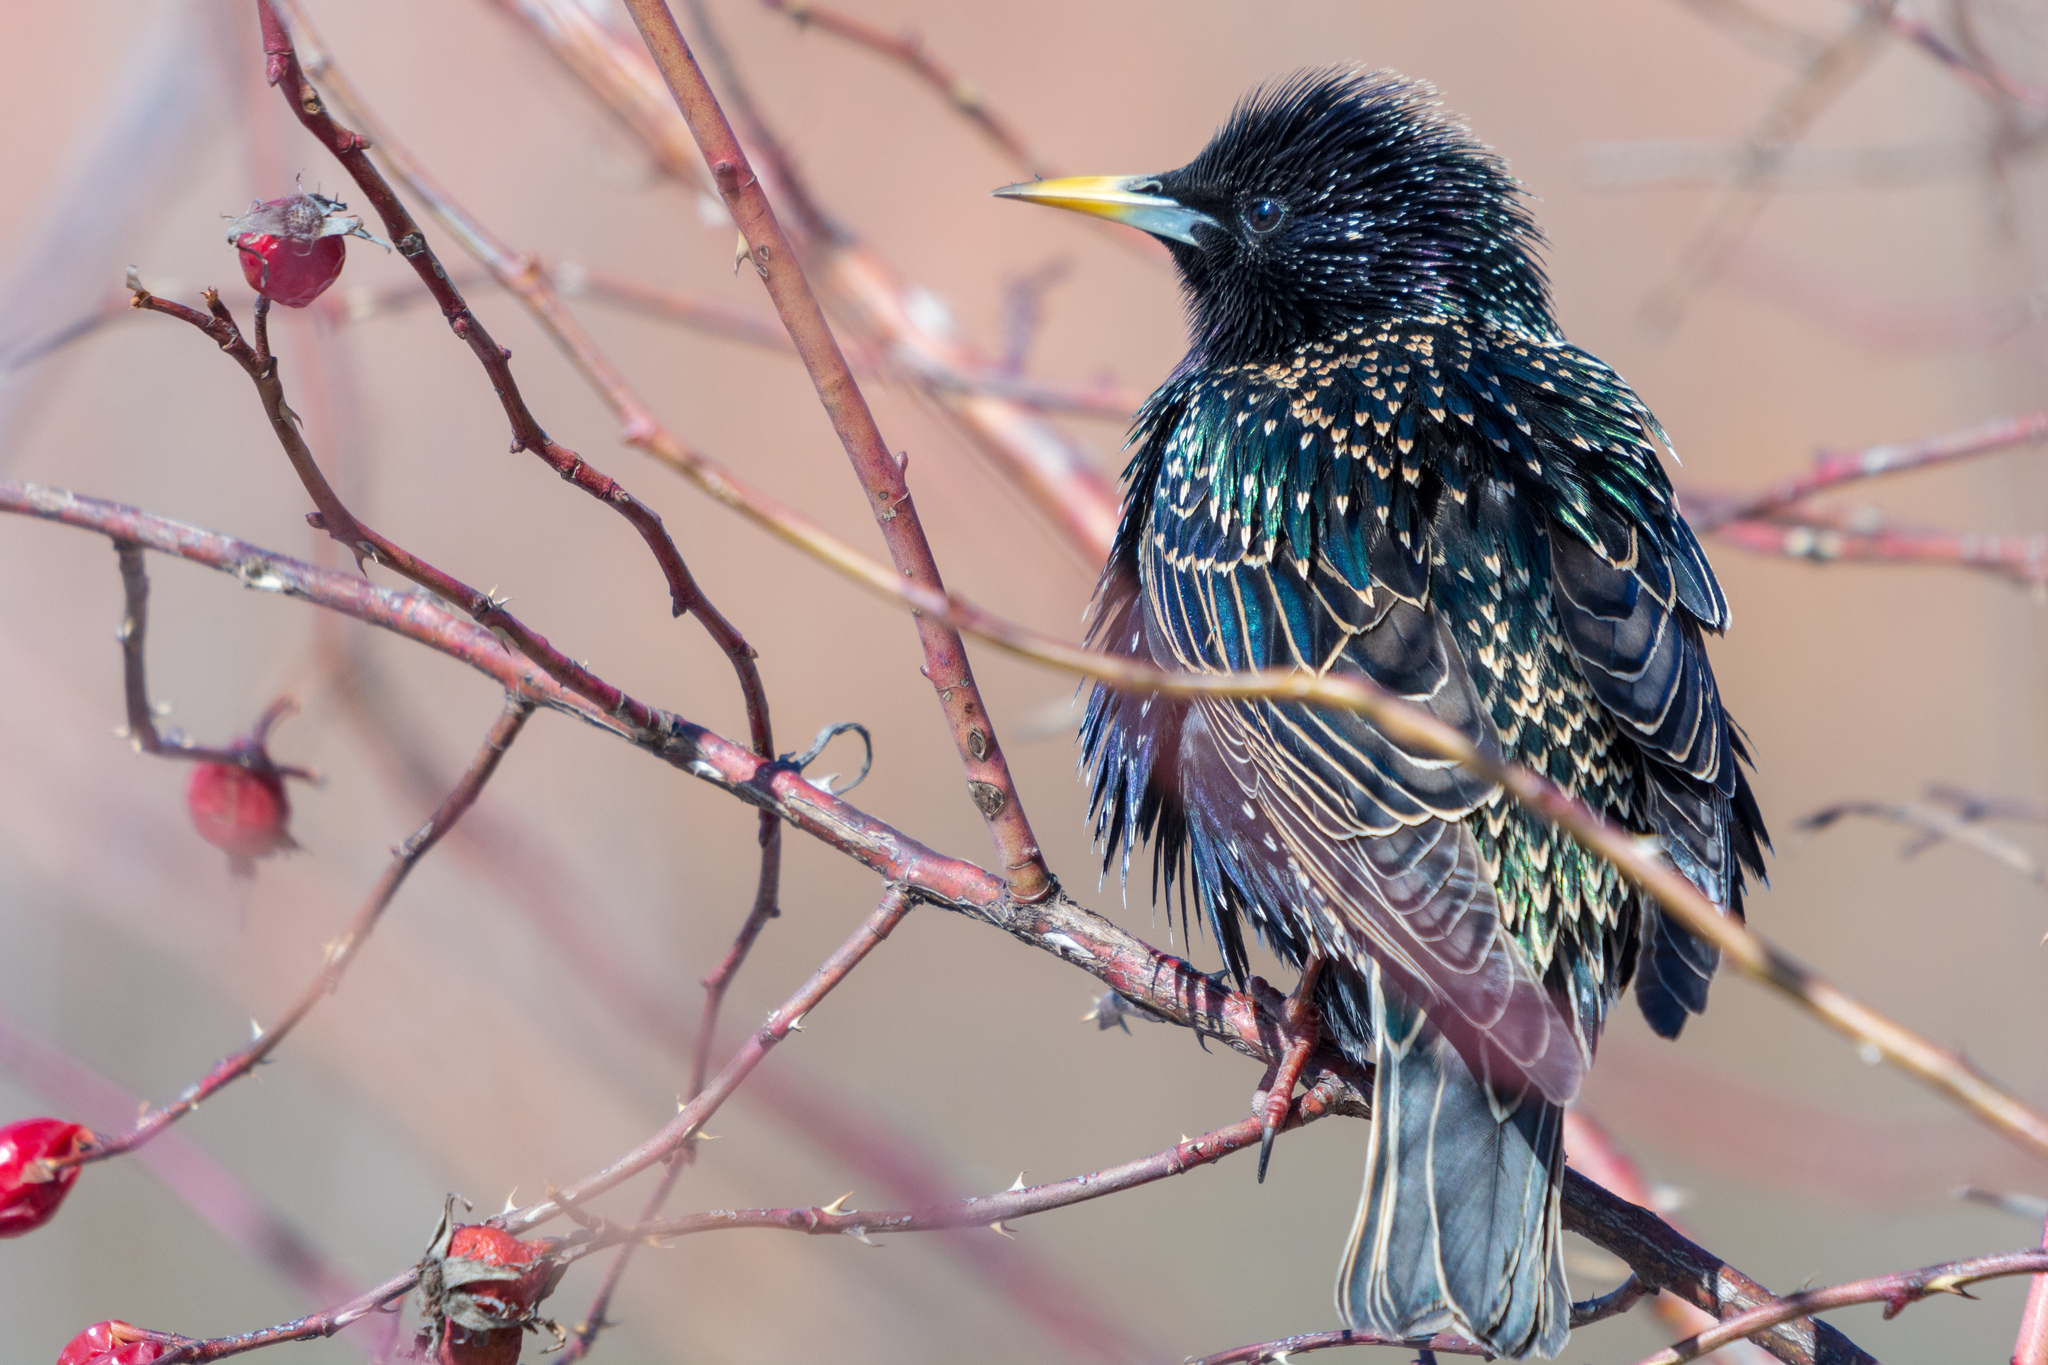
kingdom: Animalia
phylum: Chordata
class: Aves
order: Passeriformes
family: Sturnidae
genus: Sturnus
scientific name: Sturnus vulgaris
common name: Common starling
